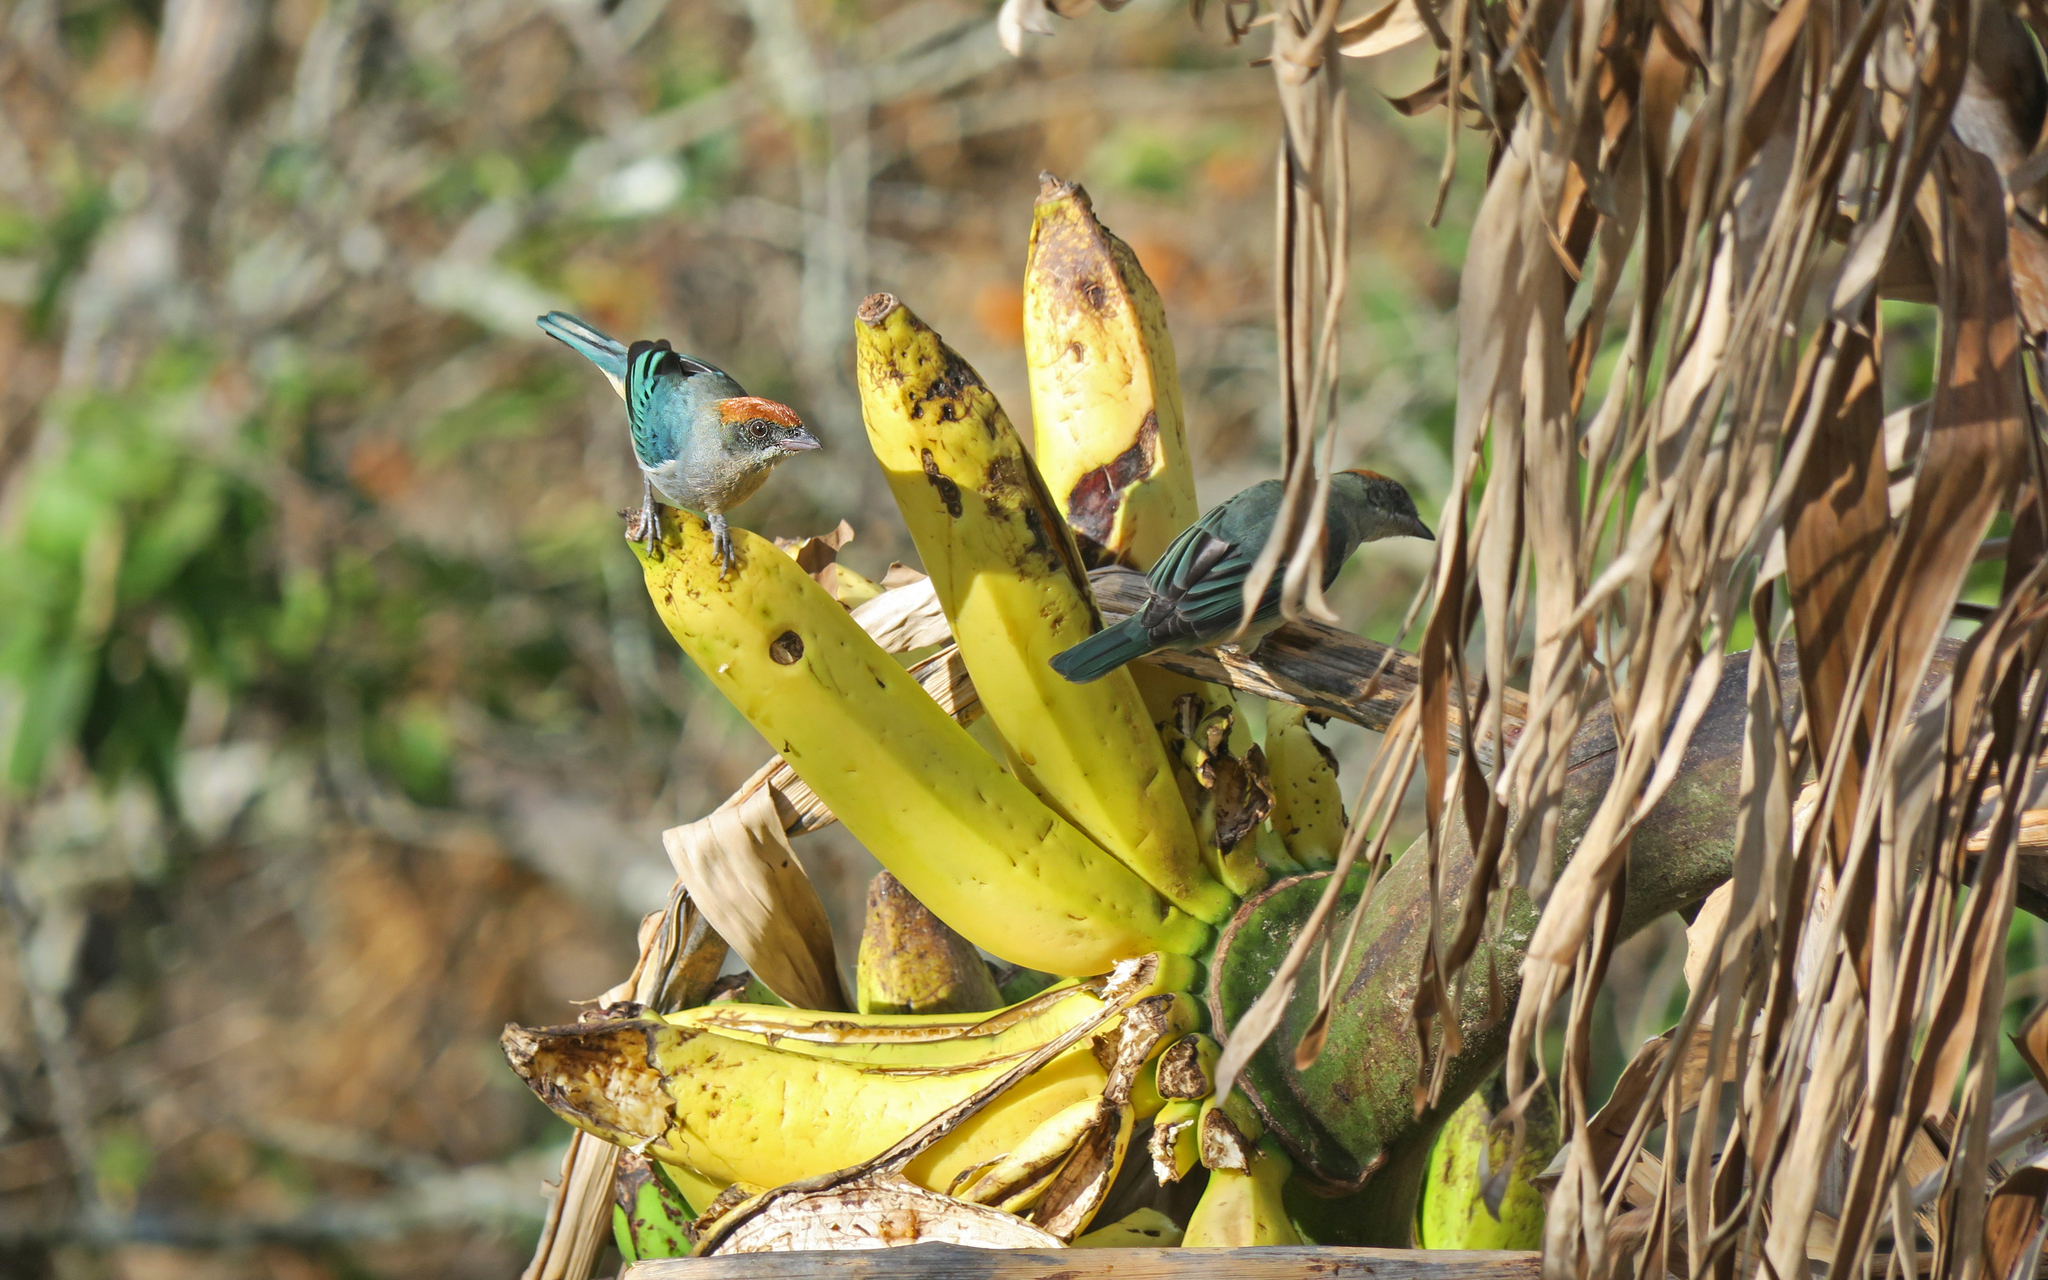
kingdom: Animalia
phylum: Chordata
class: Aves
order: Passeriformes
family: Thraupidae
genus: Stilpnia
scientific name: Stilpnia vitriolina
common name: Scrub tanager
